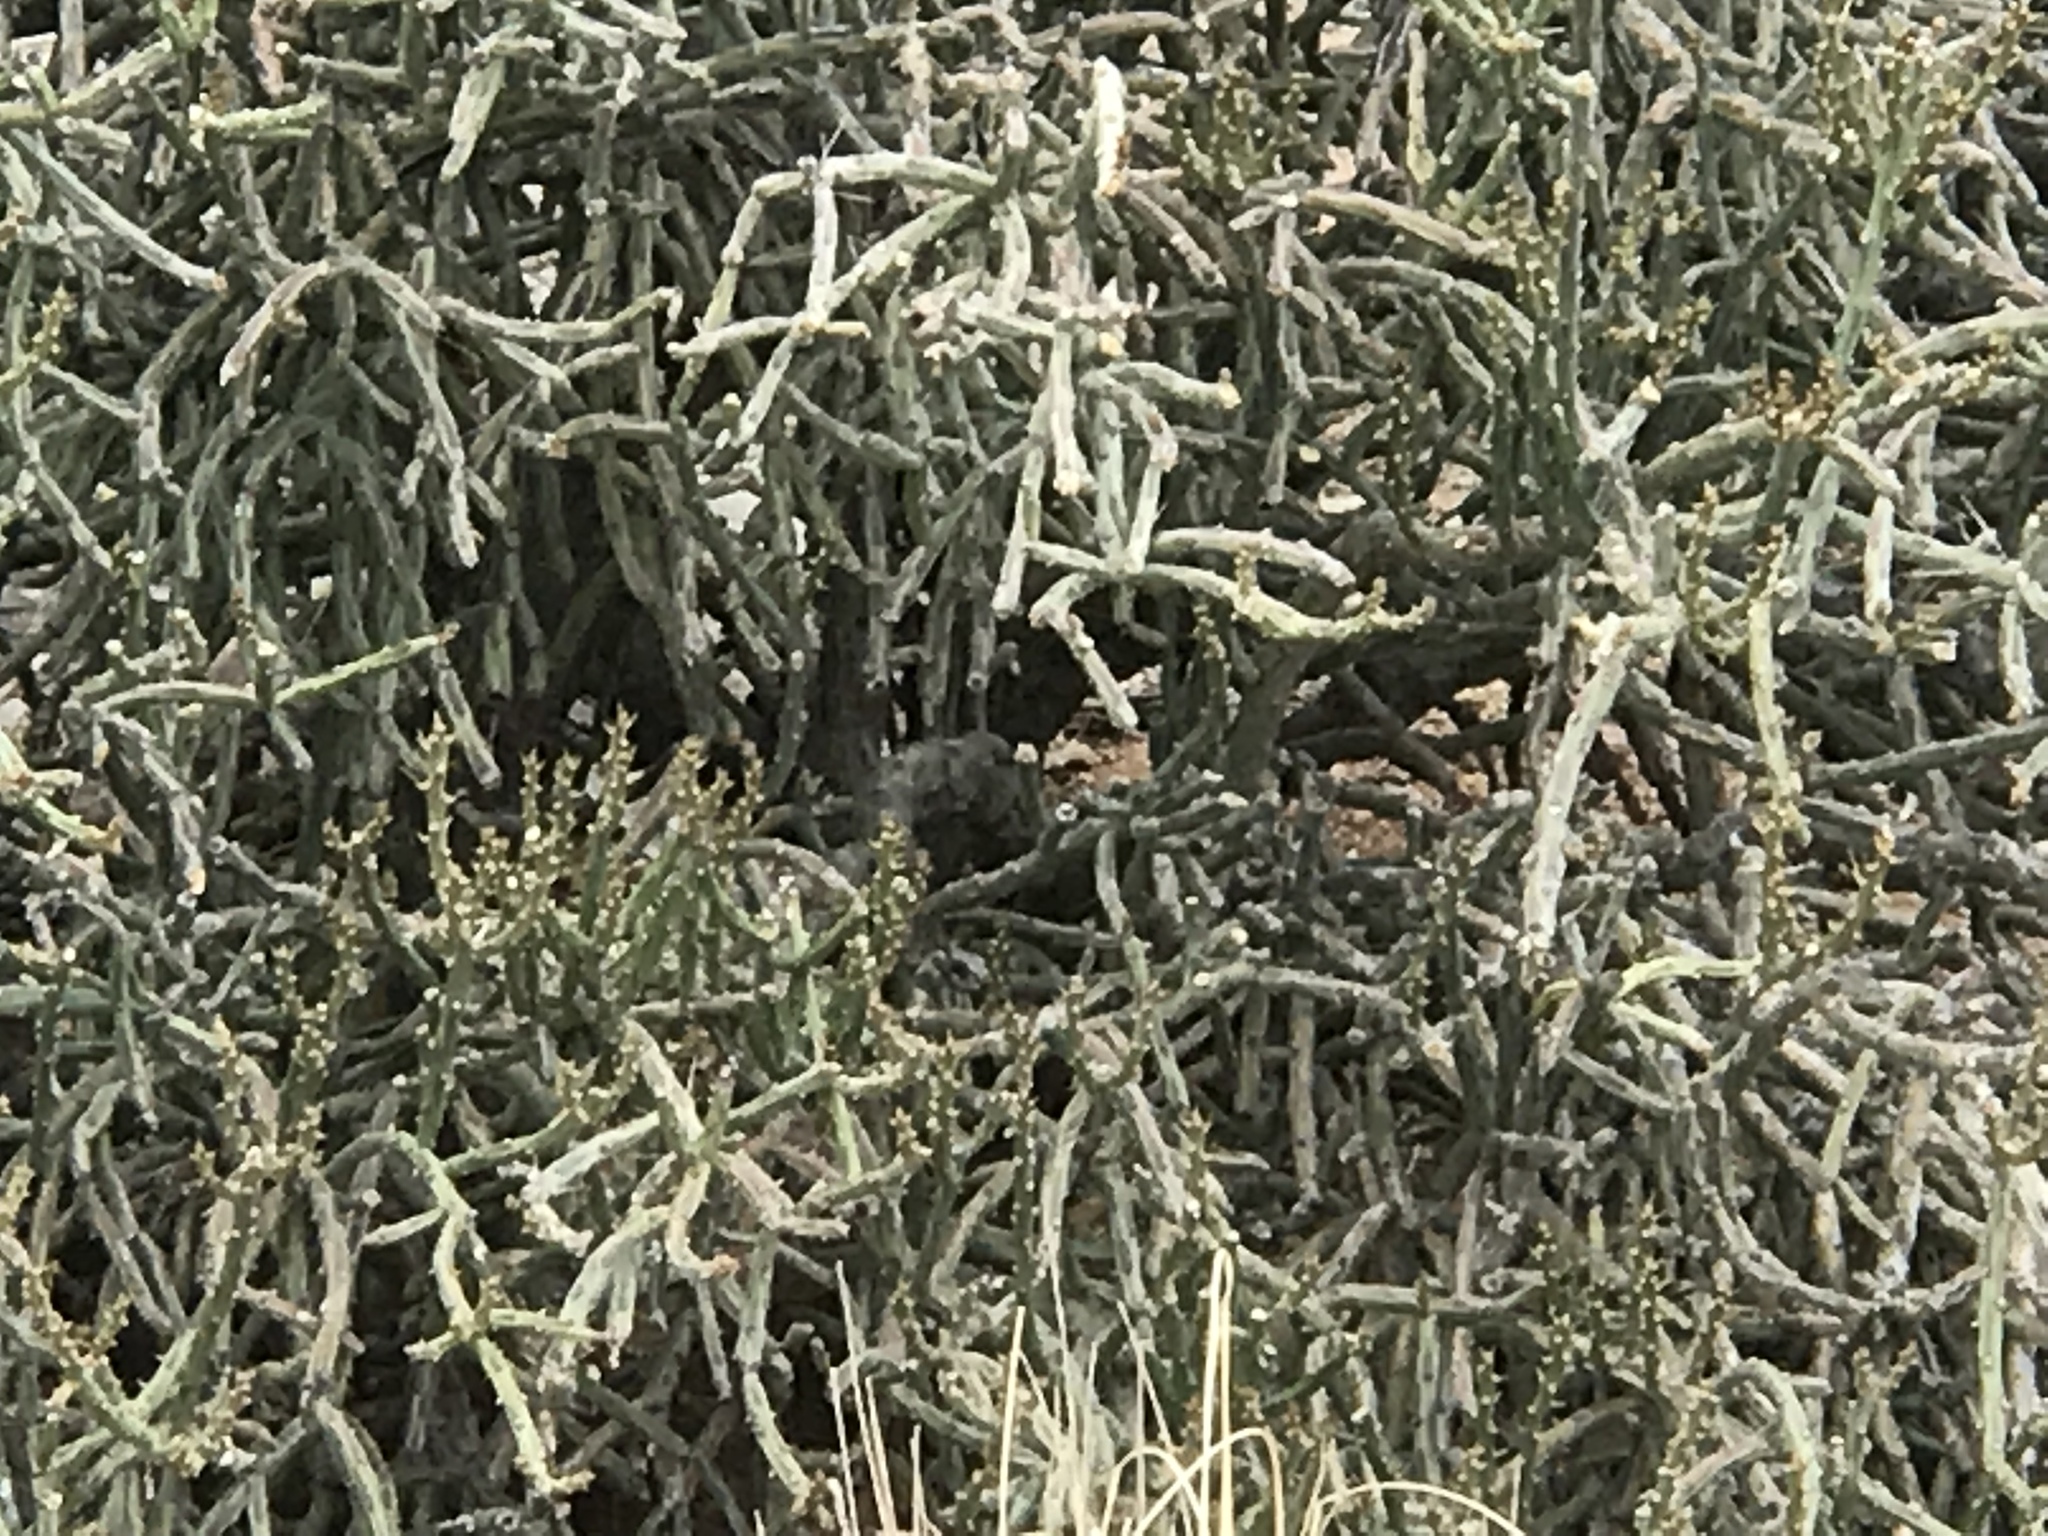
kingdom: Plantae
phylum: Tracheophyta
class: Magnoliopsida
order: Caryophyllales
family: Cactaceae
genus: Cylindropuntia
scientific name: Cylindropuntia arbuscula
